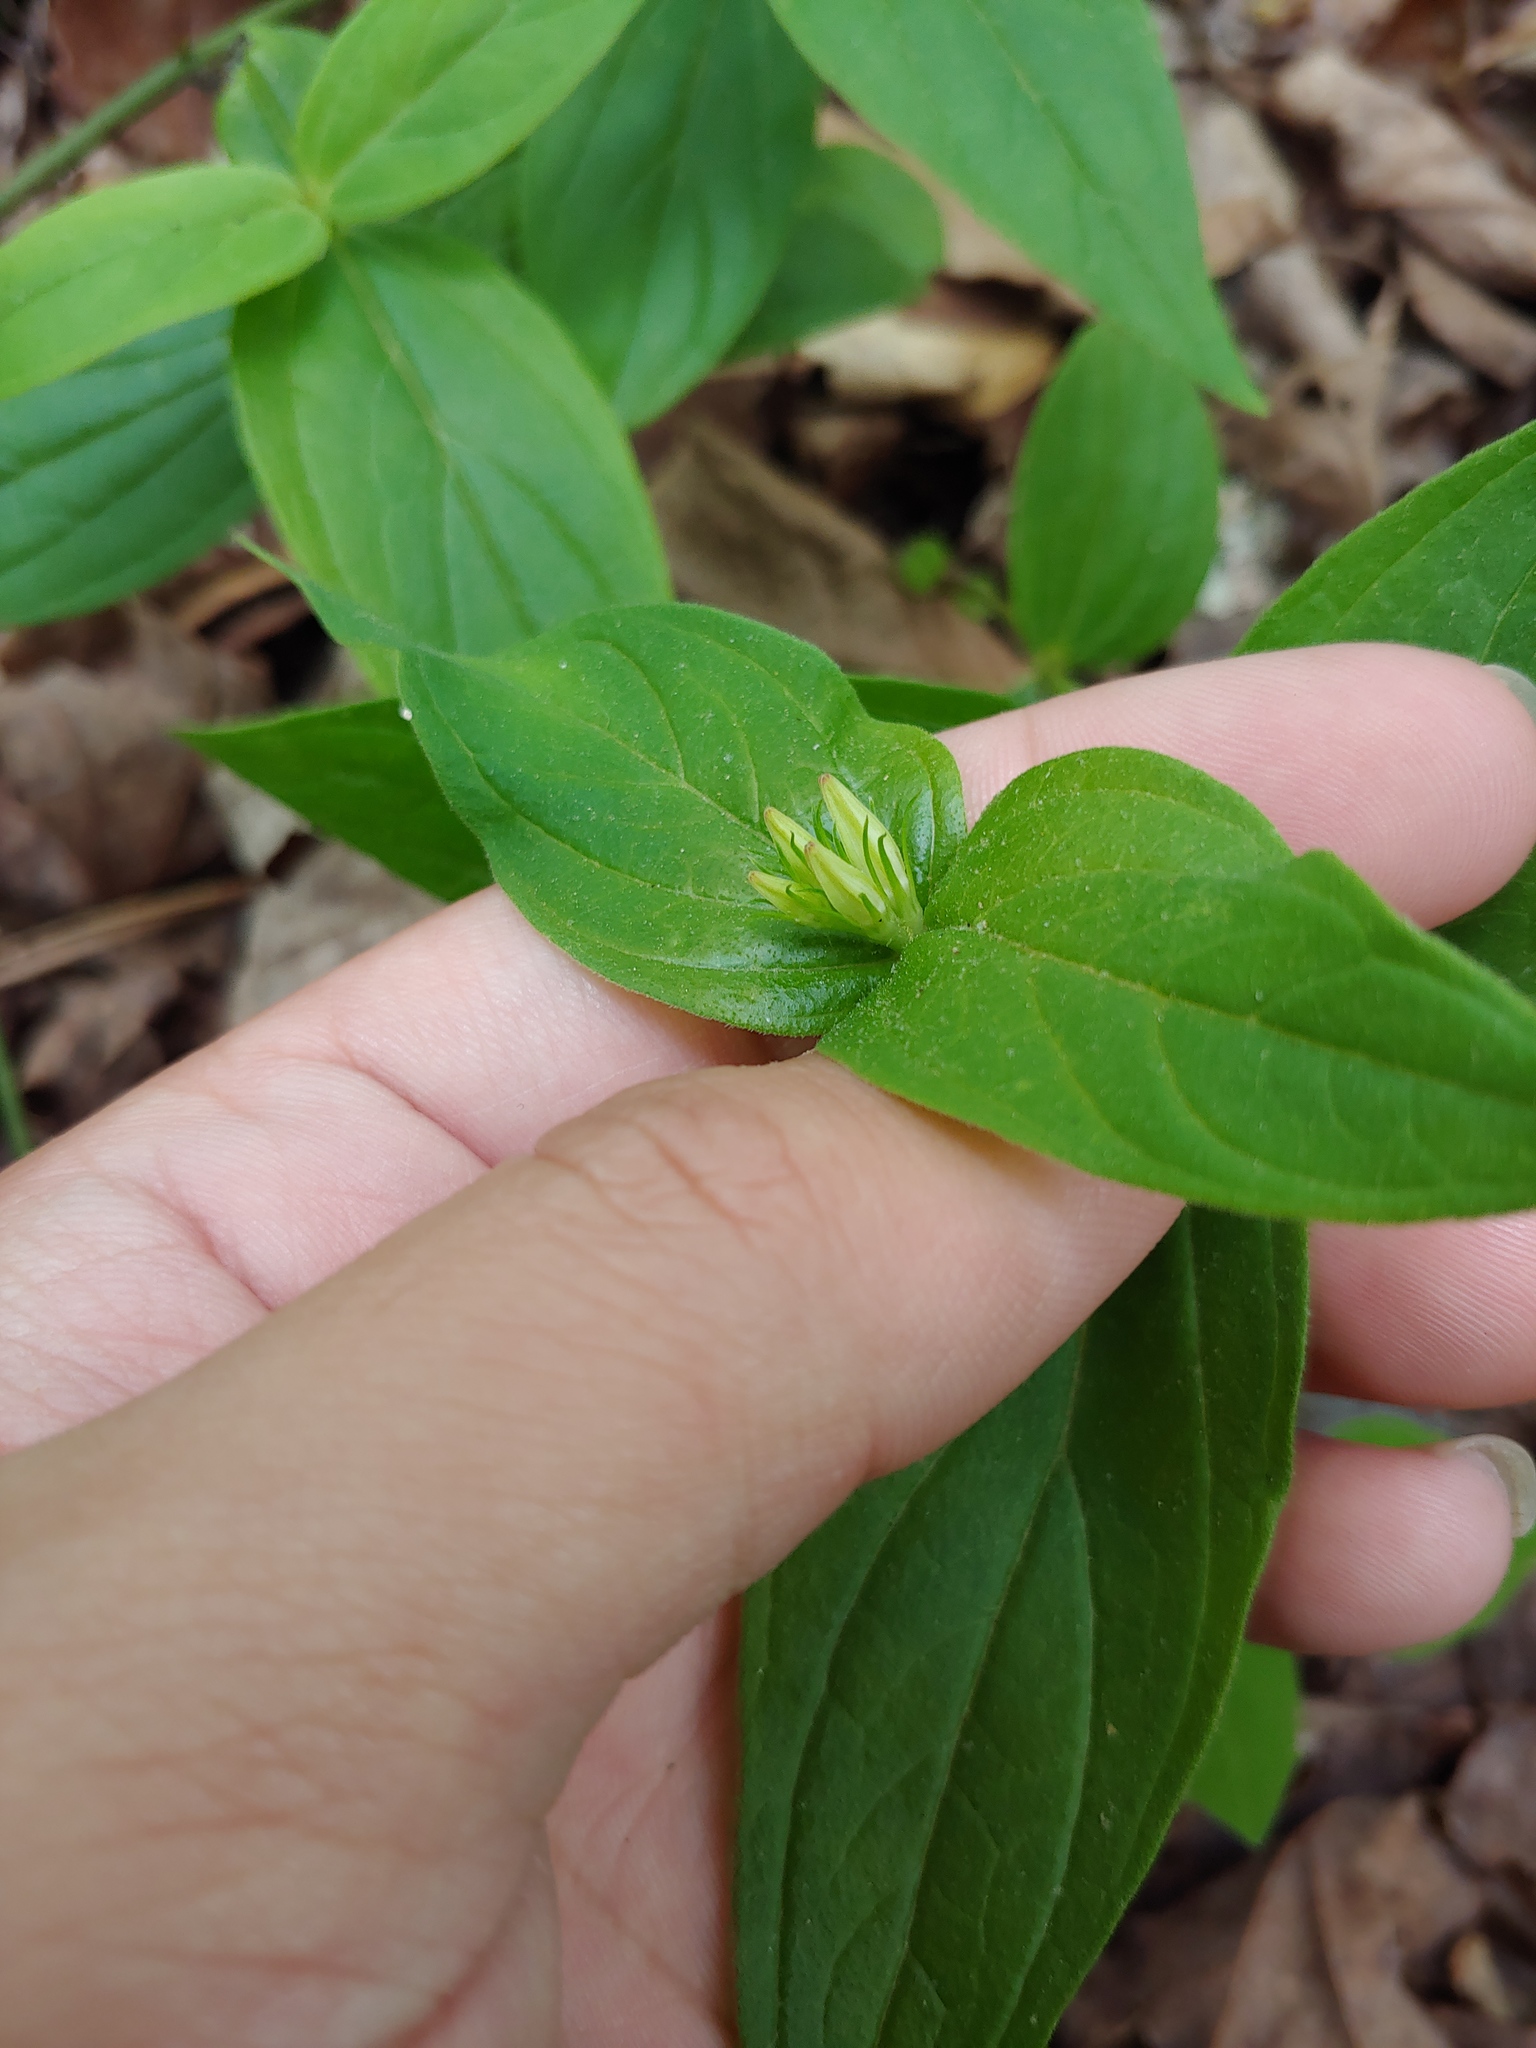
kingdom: Plantae
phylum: Tracheophyta
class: Magnoliopsida
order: Gentianales
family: Loganiaceae
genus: Spigelia
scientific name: Spigelia marilandica
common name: Indian-pink
